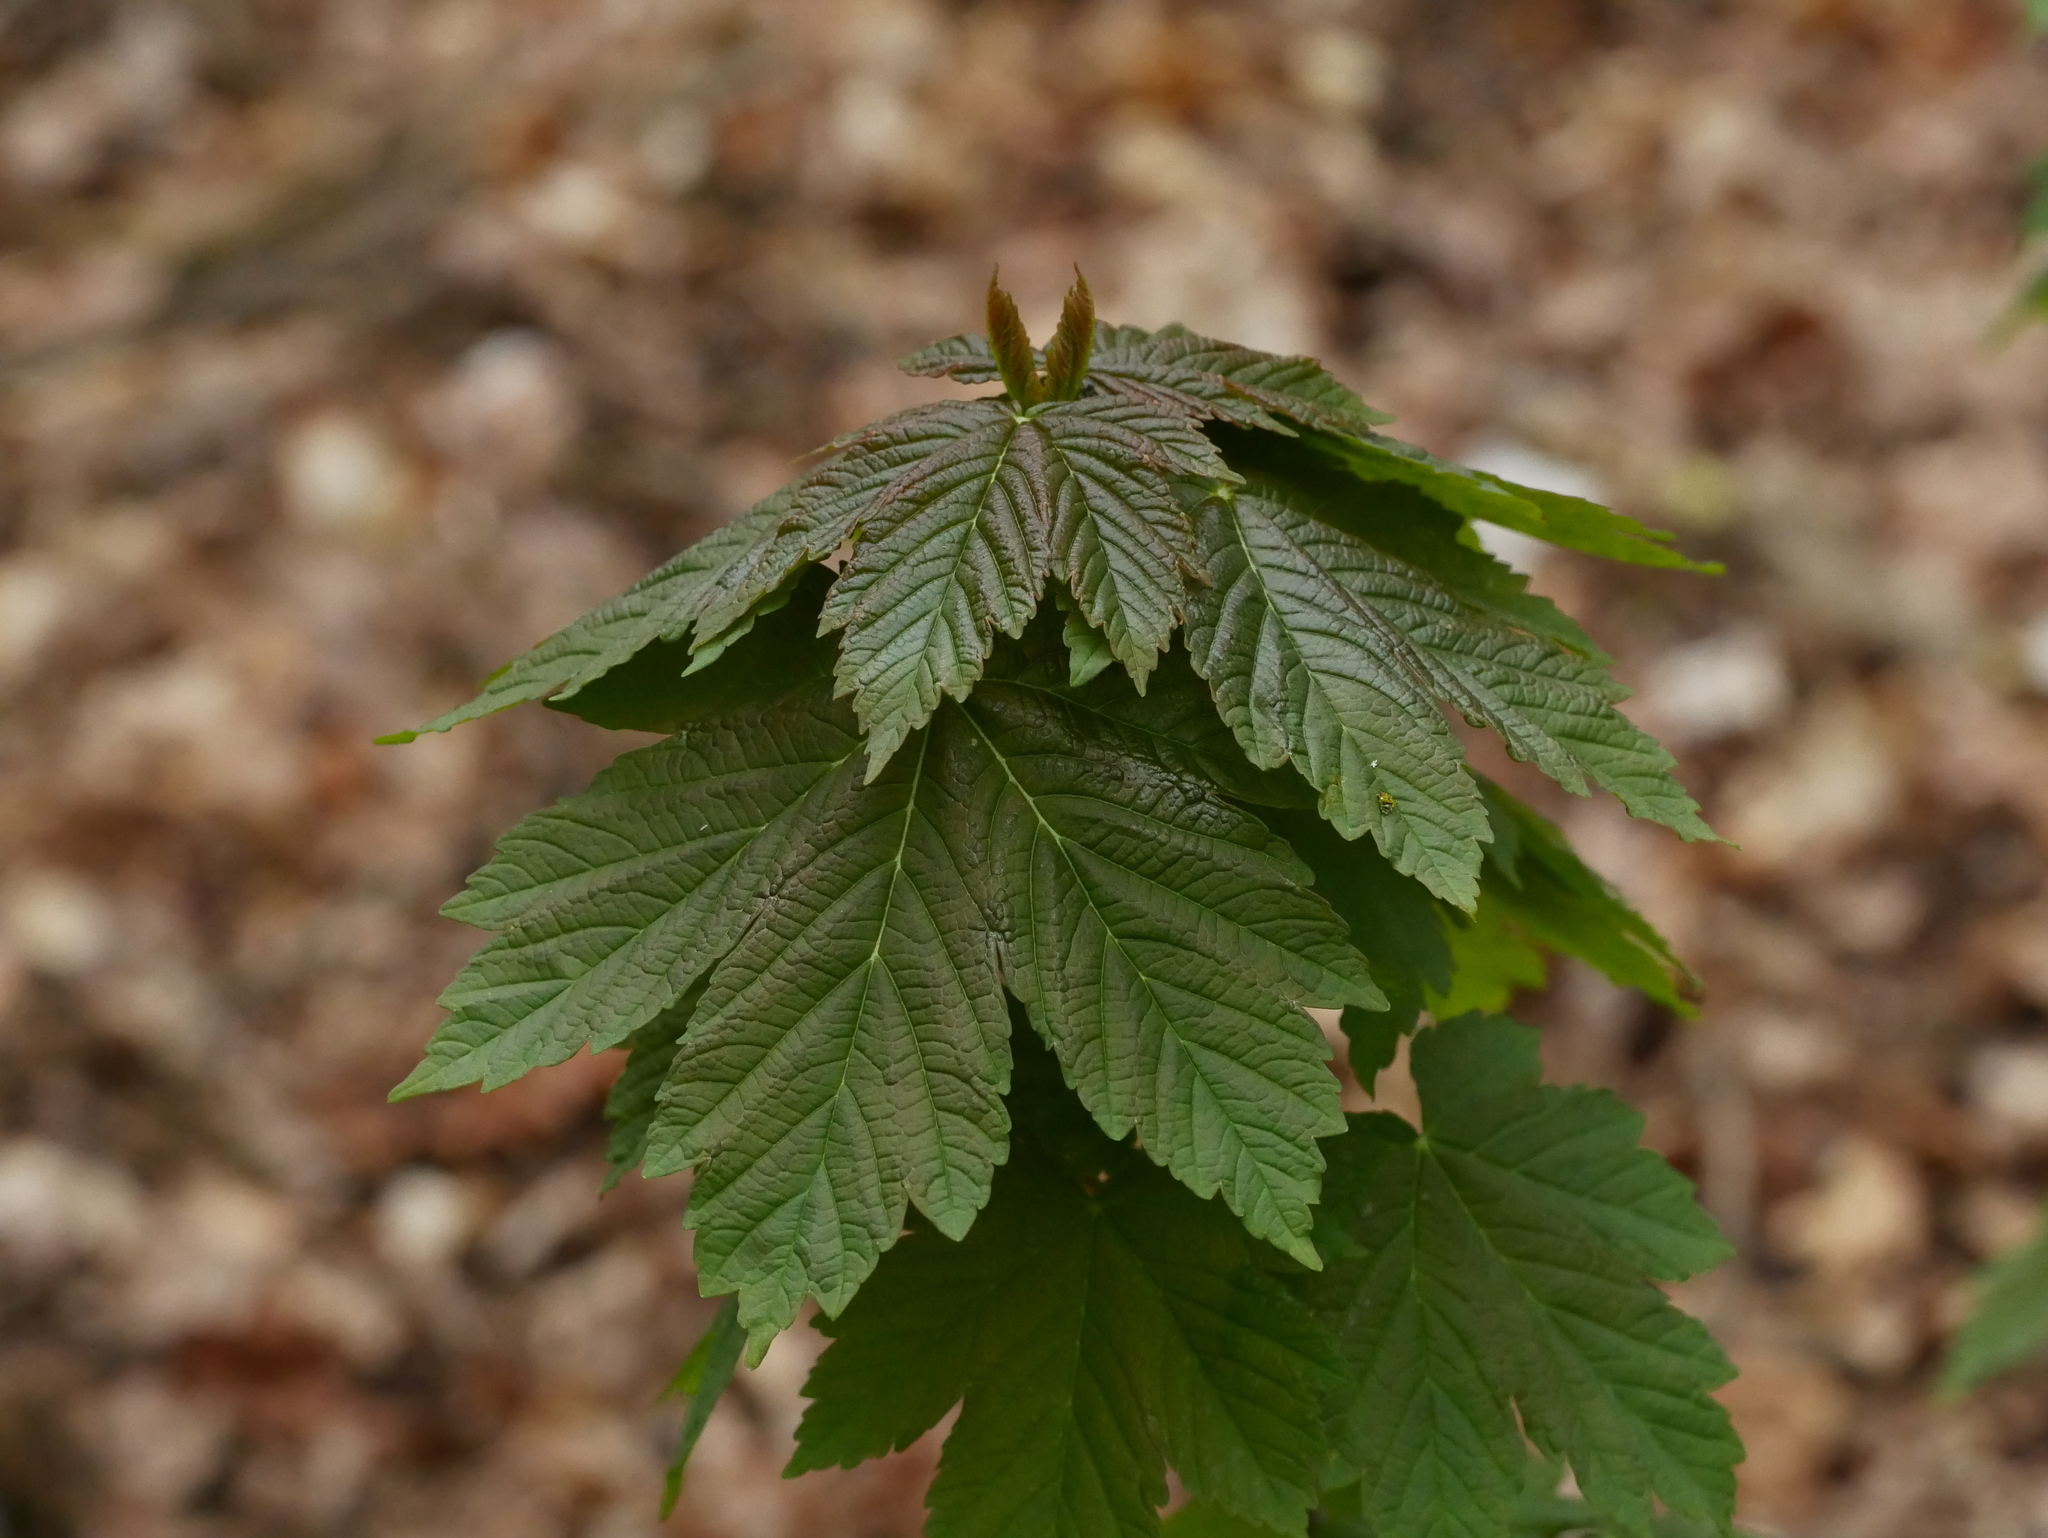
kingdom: Plantae
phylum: Tracheophyta
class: Magnoliopsida
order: Sapindales
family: Sapindaceae
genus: Acer
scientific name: Acer pseudoplatanus
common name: Sycamore
